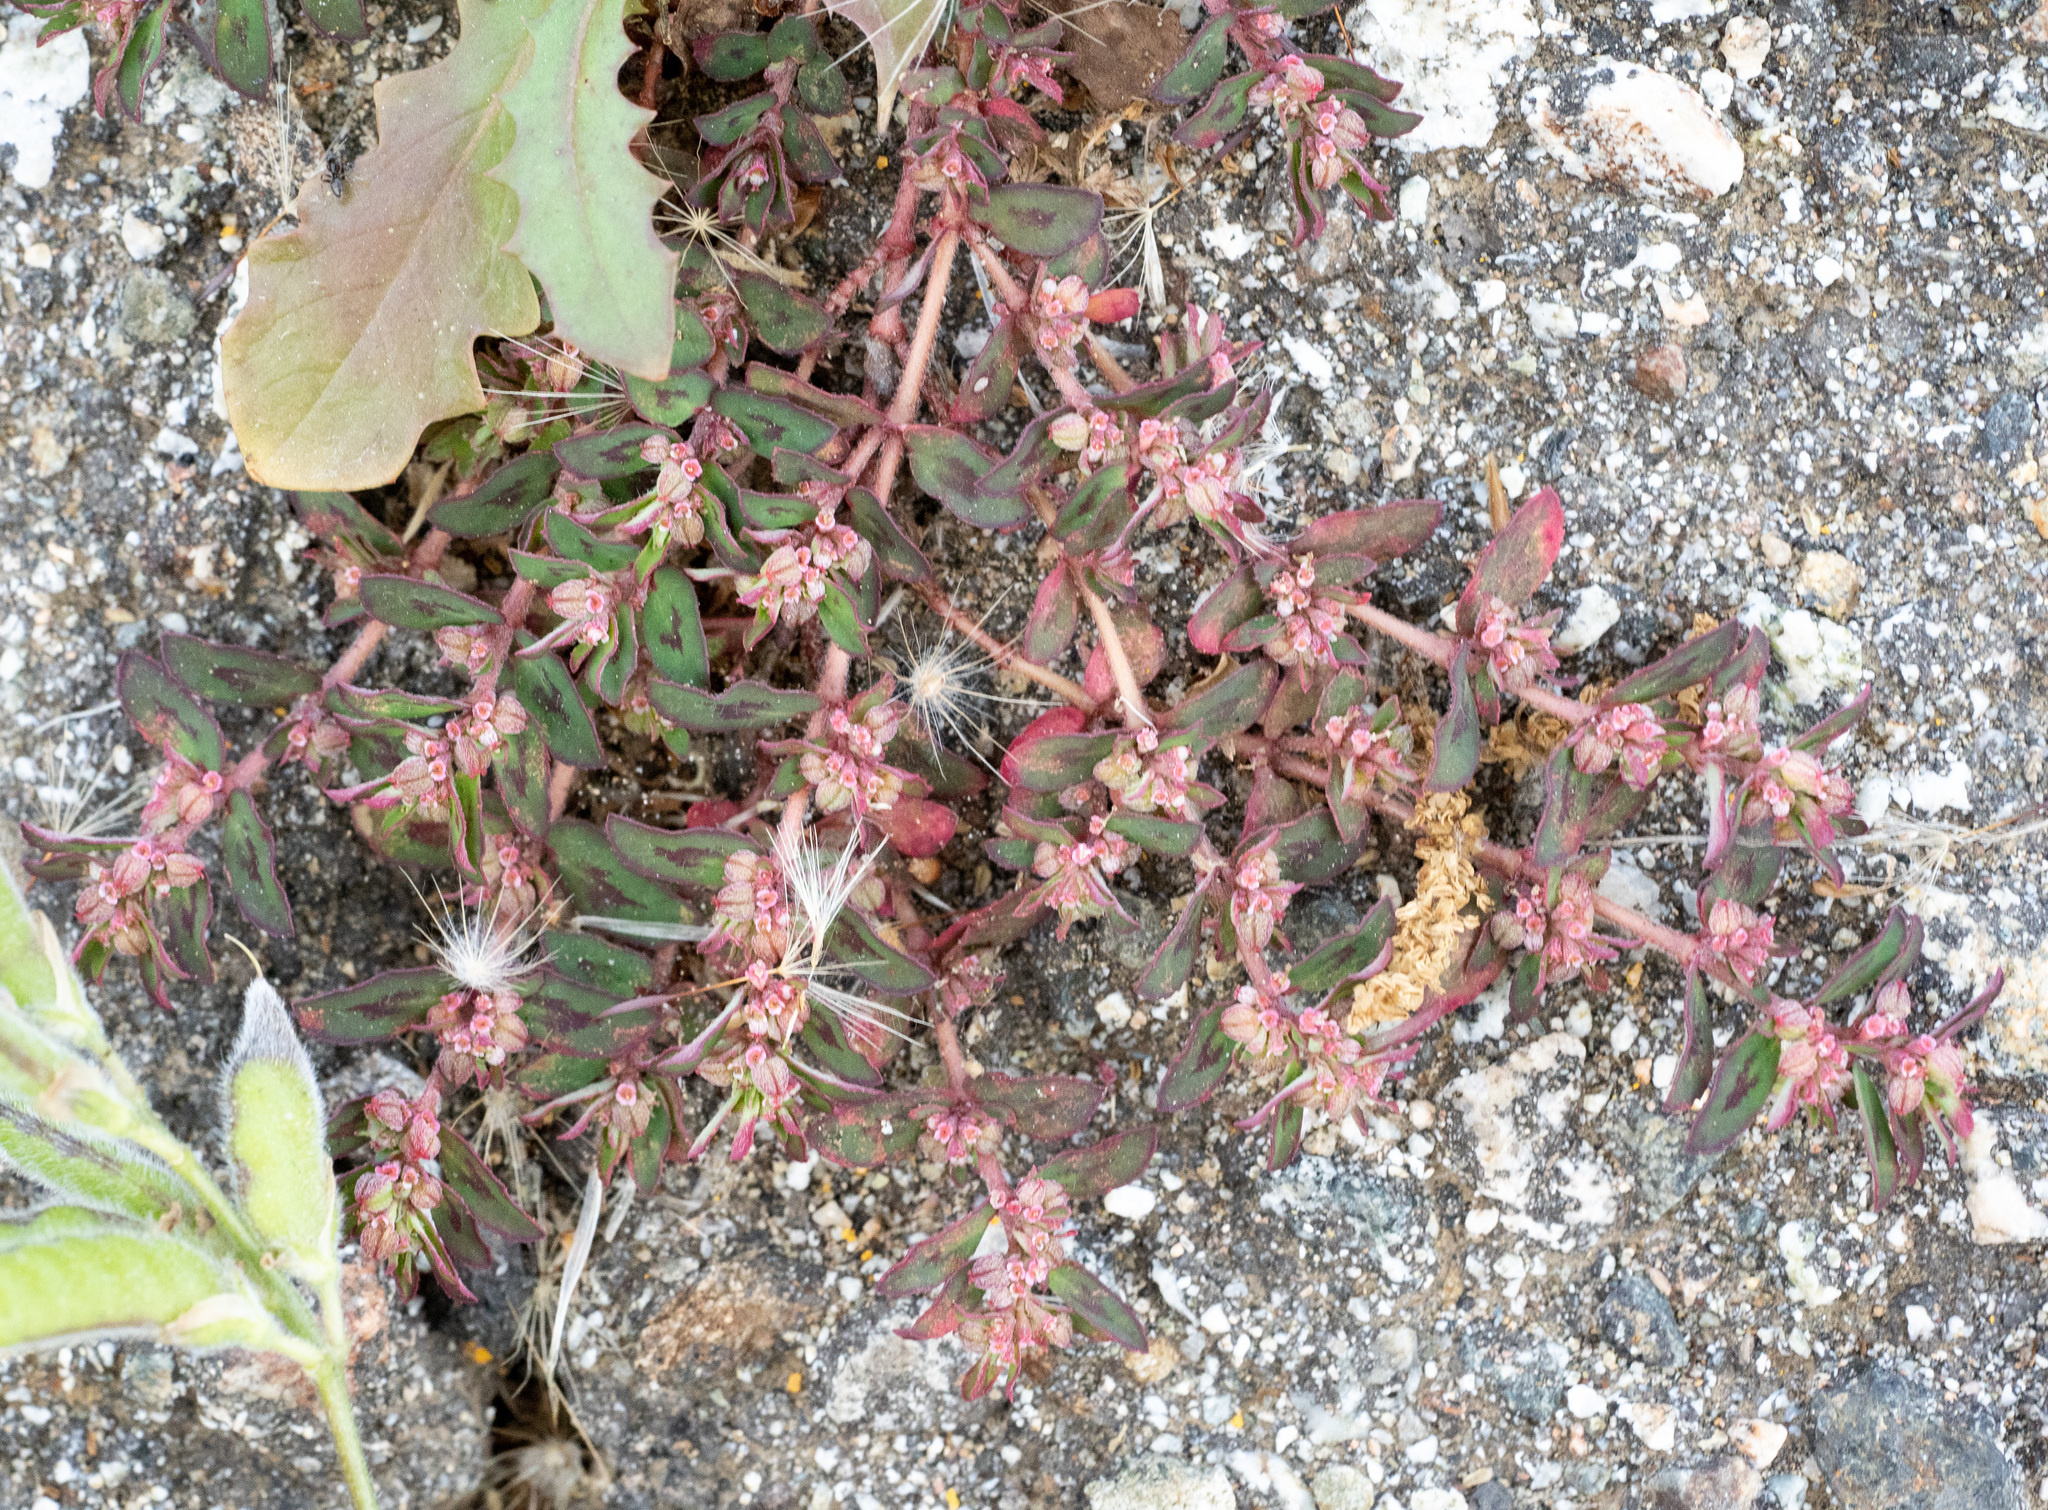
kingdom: Plantae
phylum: Tracheophyta
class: Magnoliopsida
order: Malpighiales
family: Euphorbiaceae
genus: Euphorbia
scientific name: Euphorbia maculata
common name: Spotted spurge
